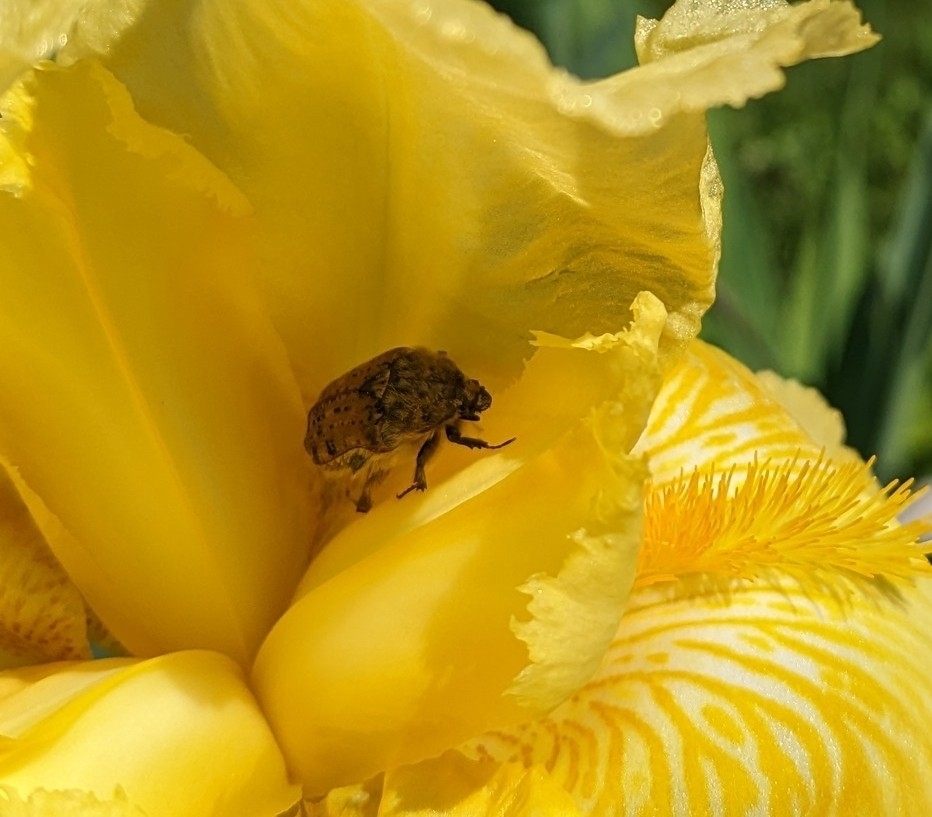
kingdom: Animalia
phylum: Arthropoda
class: Insecta
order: Coleoptera
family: Scarabaeidae
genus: Euphoria
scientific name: Euphoria inda
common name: Bumble flower beetle
